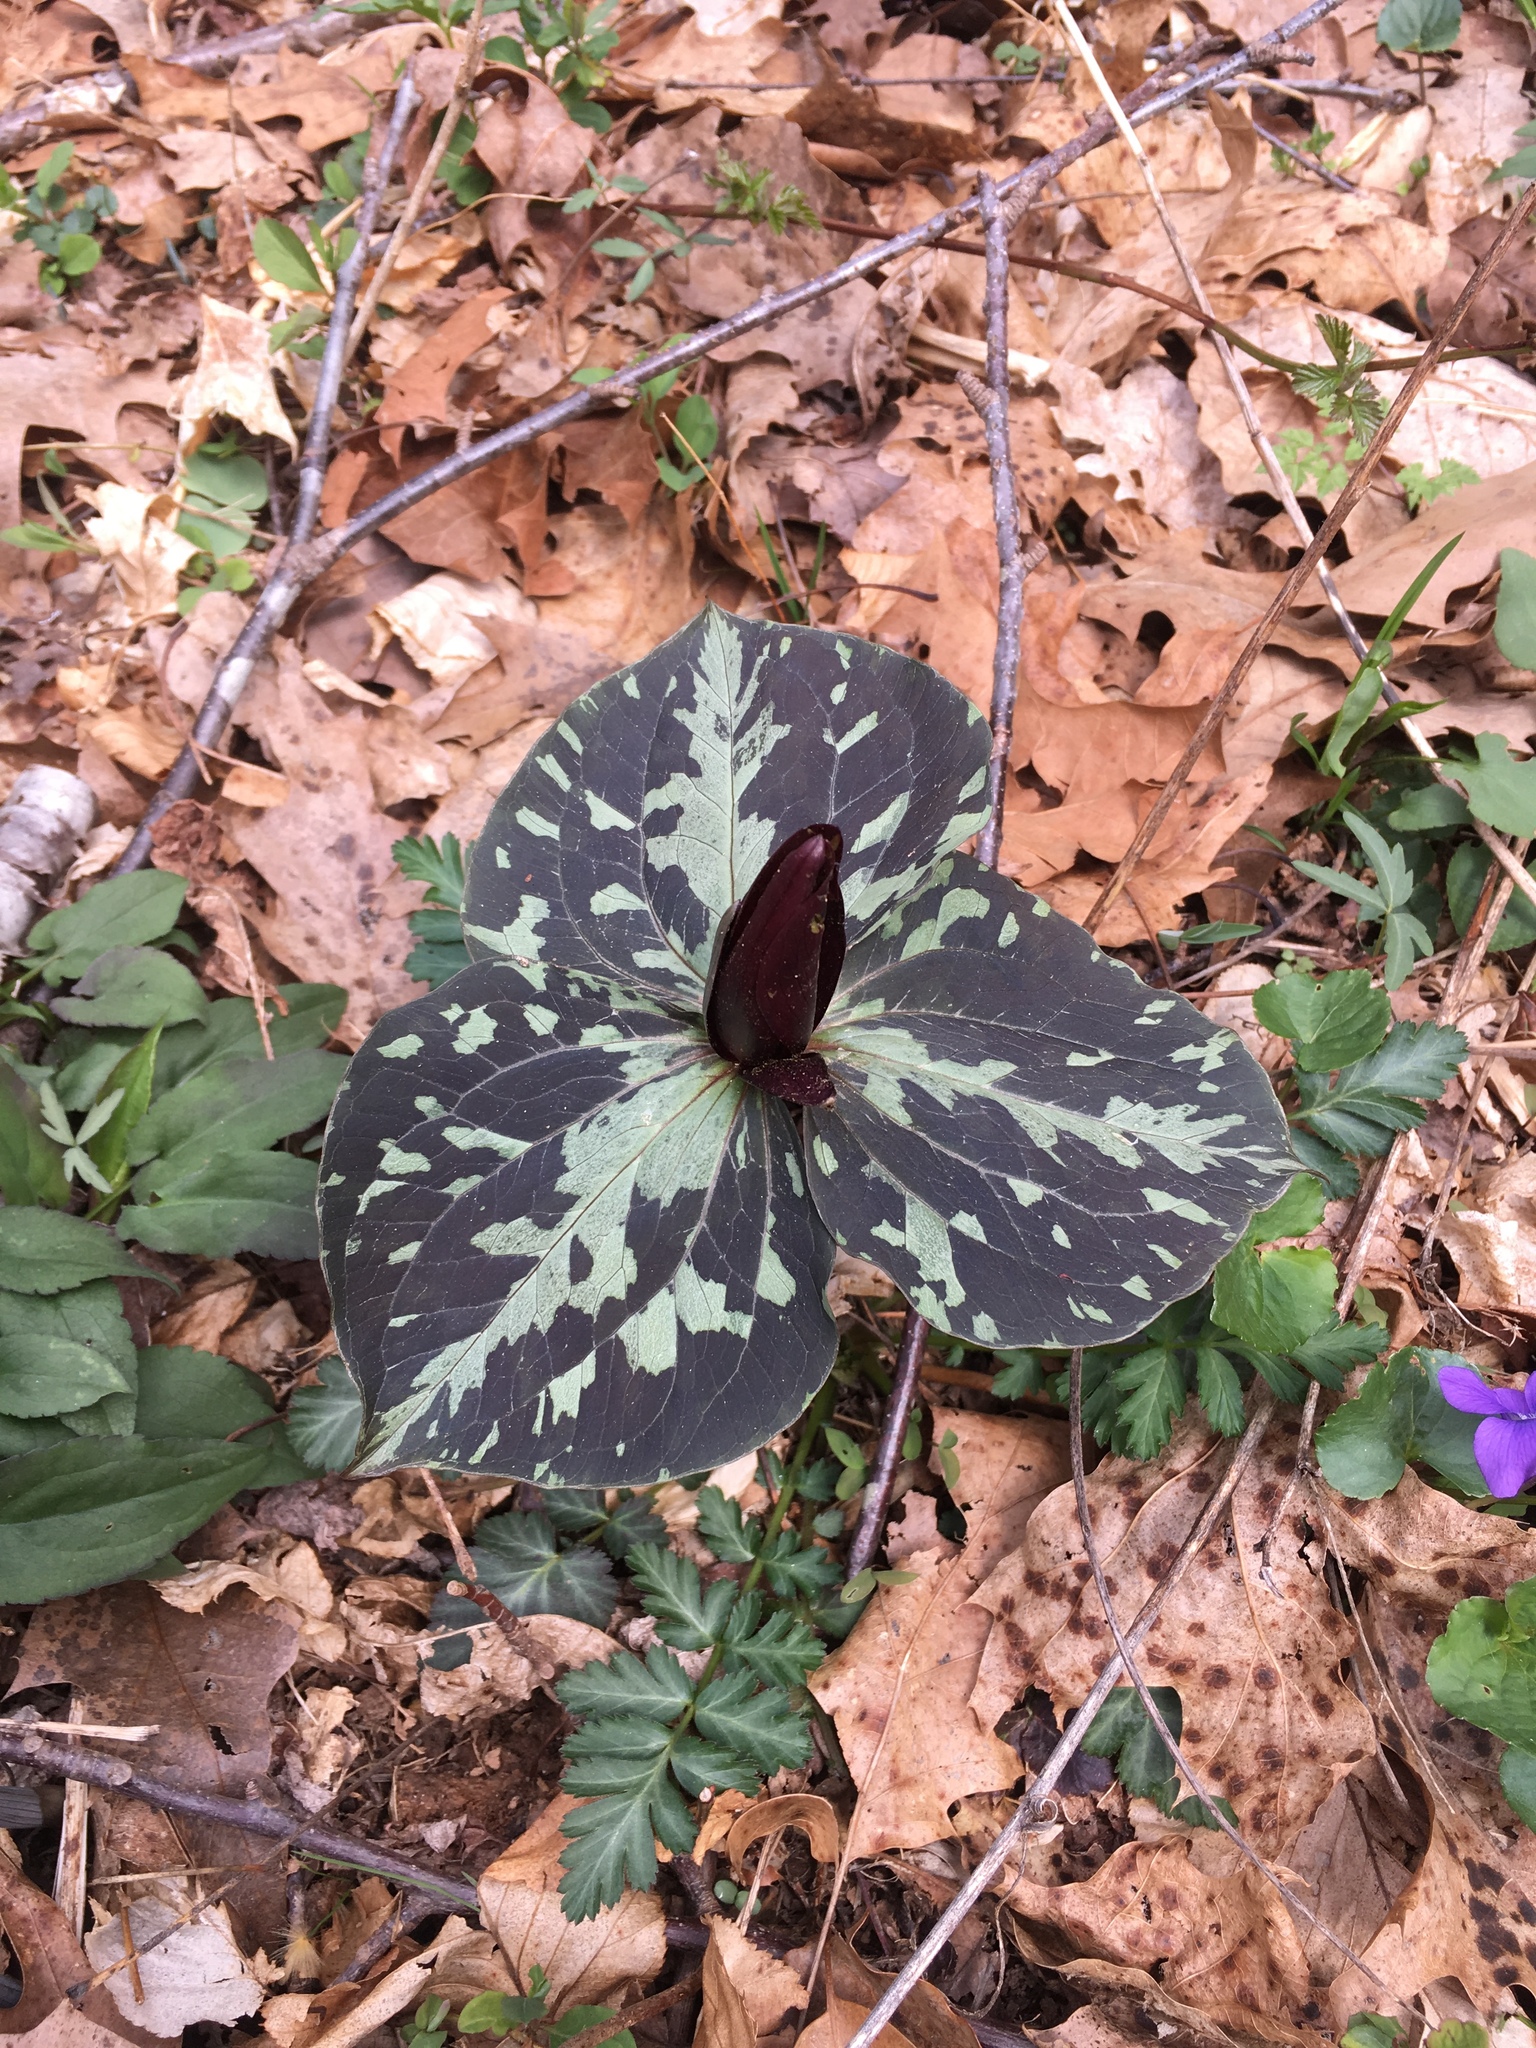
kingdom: Plantae
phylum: Tracheophyta
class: Liliopsida
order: Liliales
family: Melanthiaceae
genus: Trillium
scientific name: Trillium cuneatum
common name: Cuneate trillium
